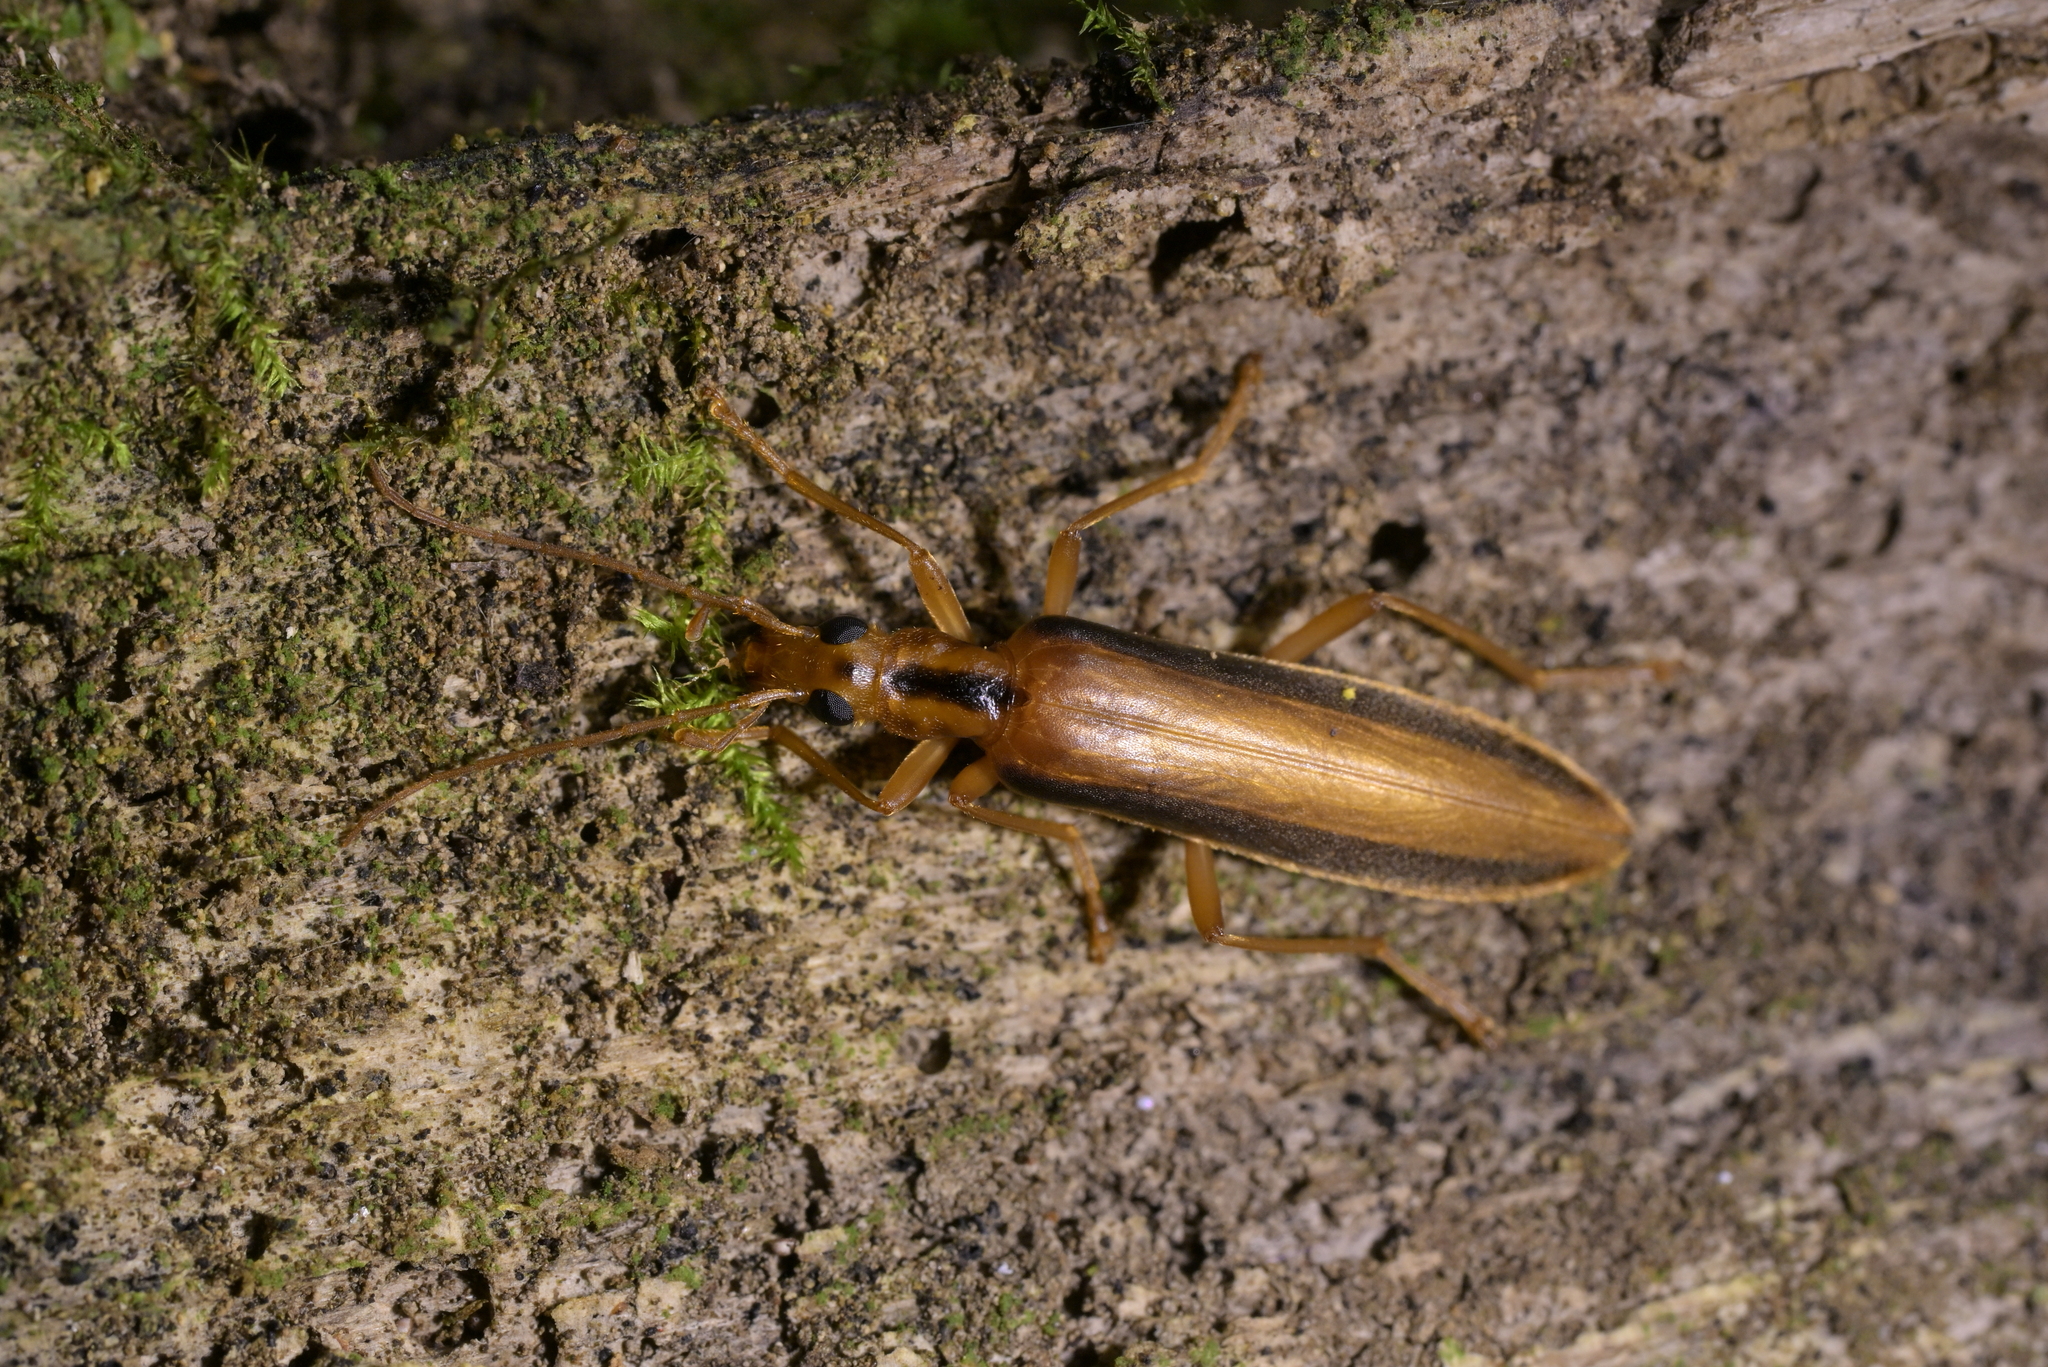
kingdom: Animalia
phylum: Arthropoda
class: Insecta
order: Coleoptera
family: Oedemeridae
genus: Thelyphassa
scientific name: Thelyphassa
